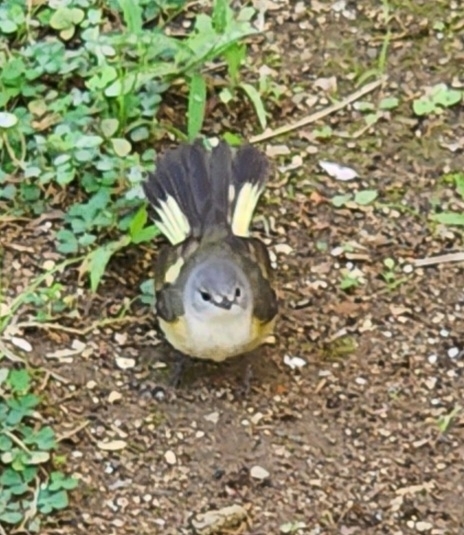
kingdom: Animalia
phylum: Chordata
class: Aves
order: Passeriformes
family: Parulidae
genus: Setophaga
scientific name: Setophaga ruticilla
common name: American redstart
